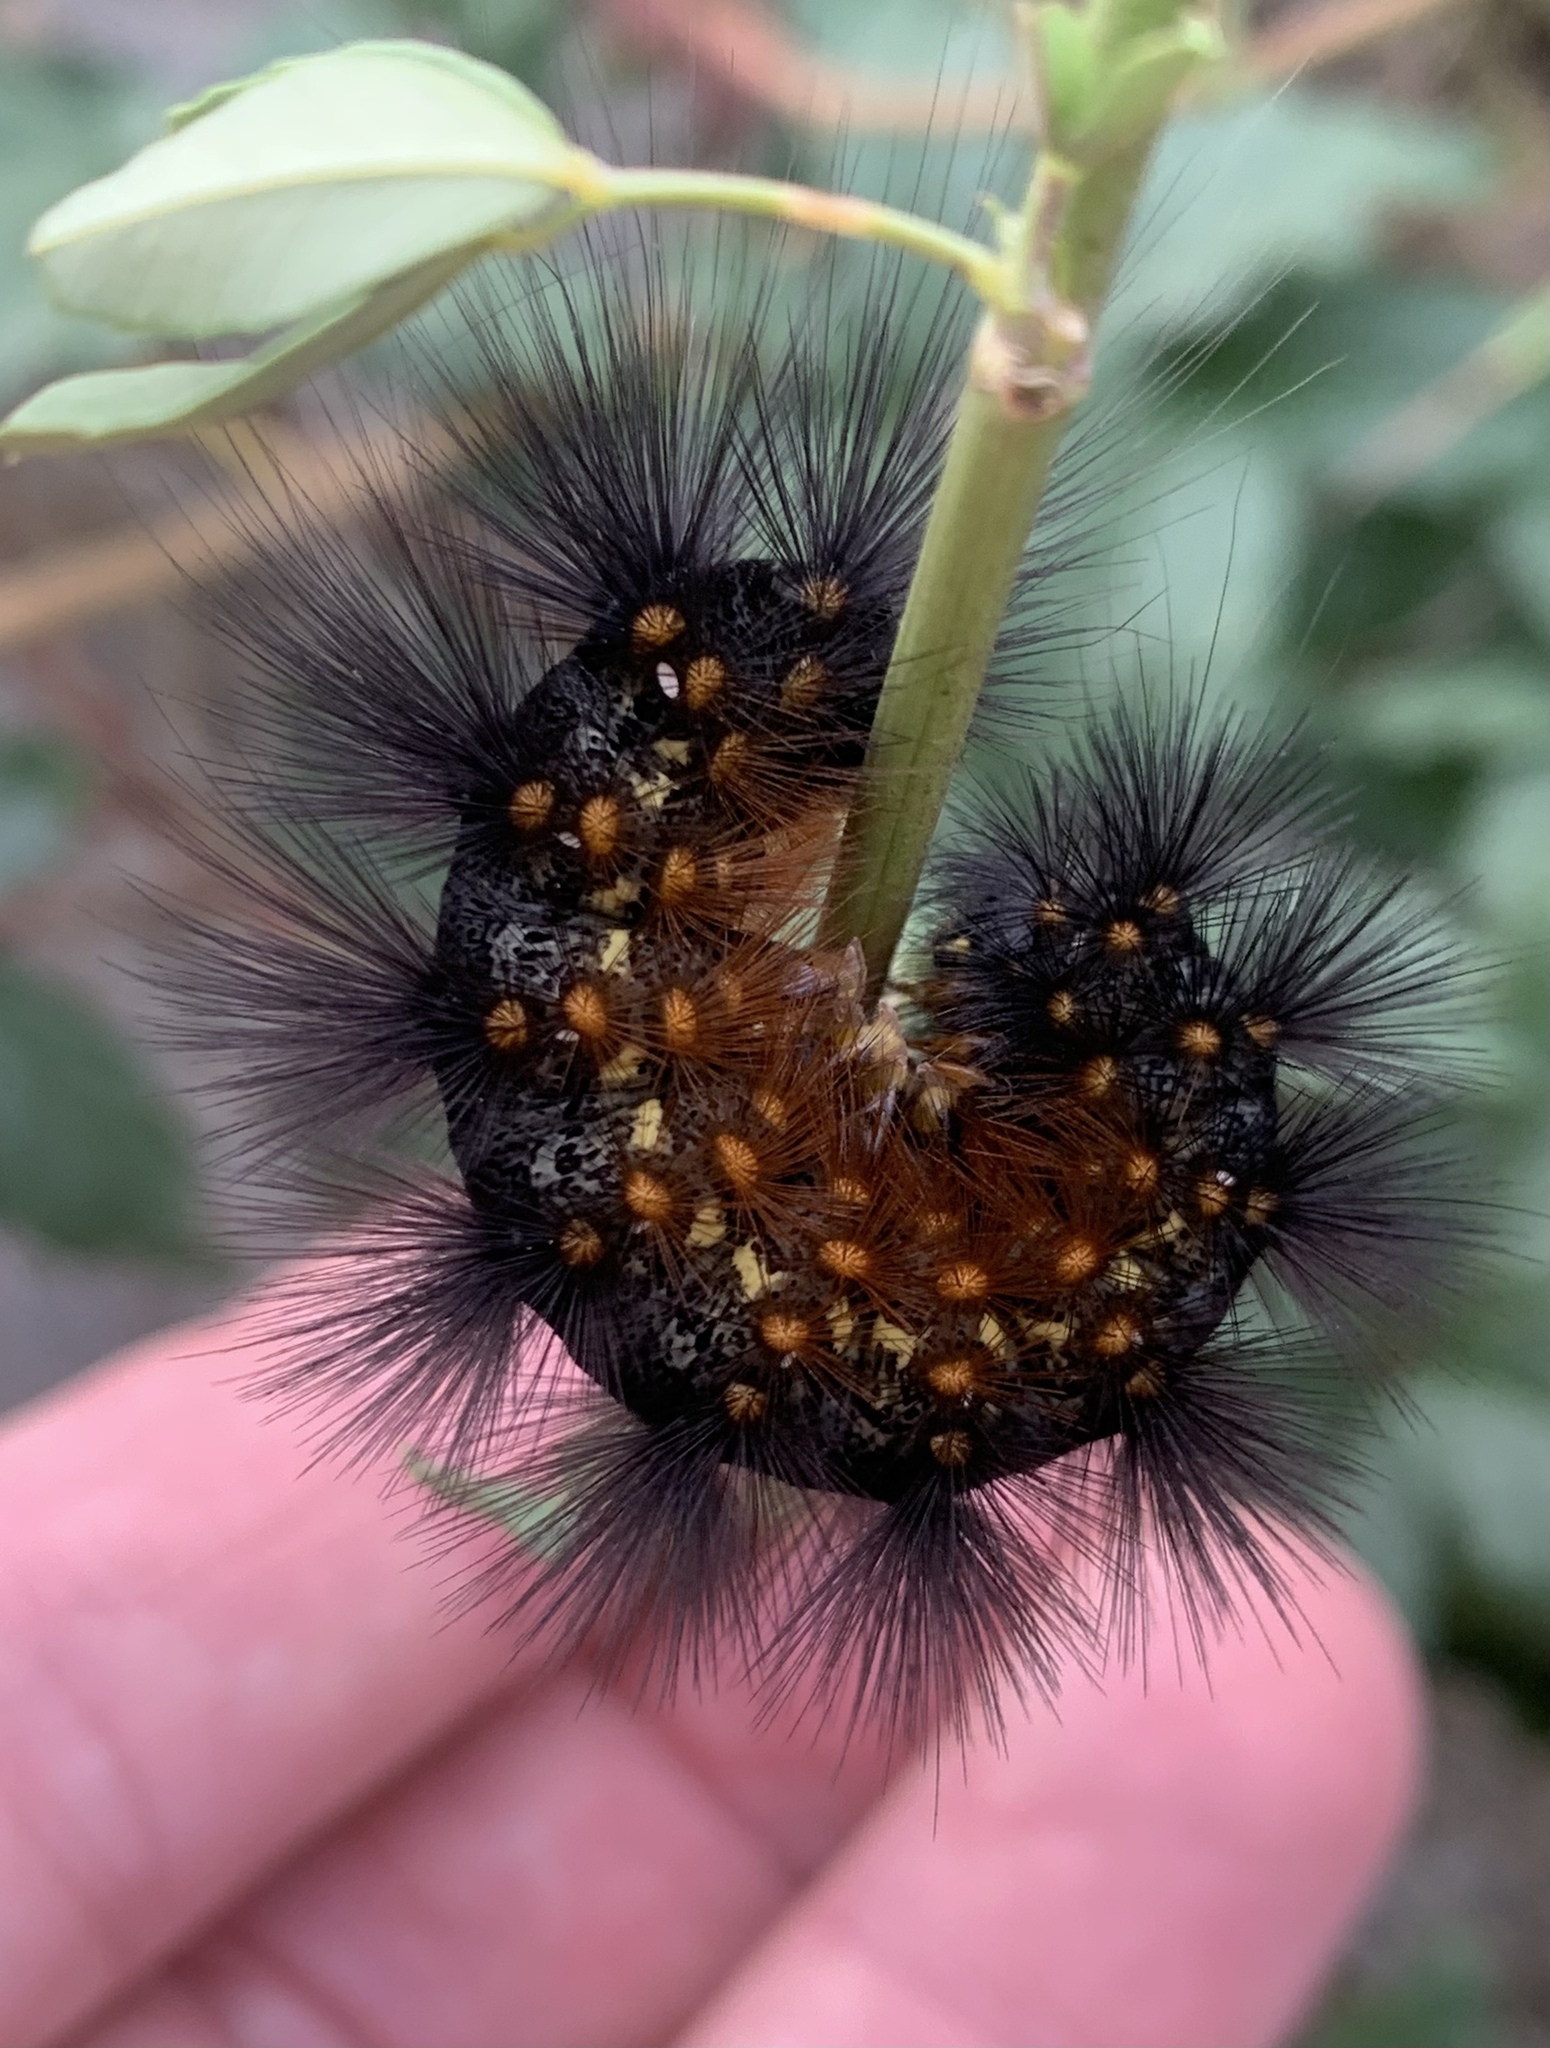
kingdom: Animalia
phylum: Arthropoda
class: Insecta
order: Lepidoptera
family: Erebidae
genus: Estigmene
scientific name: Estigmene acrea
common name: Salt marsh moth
